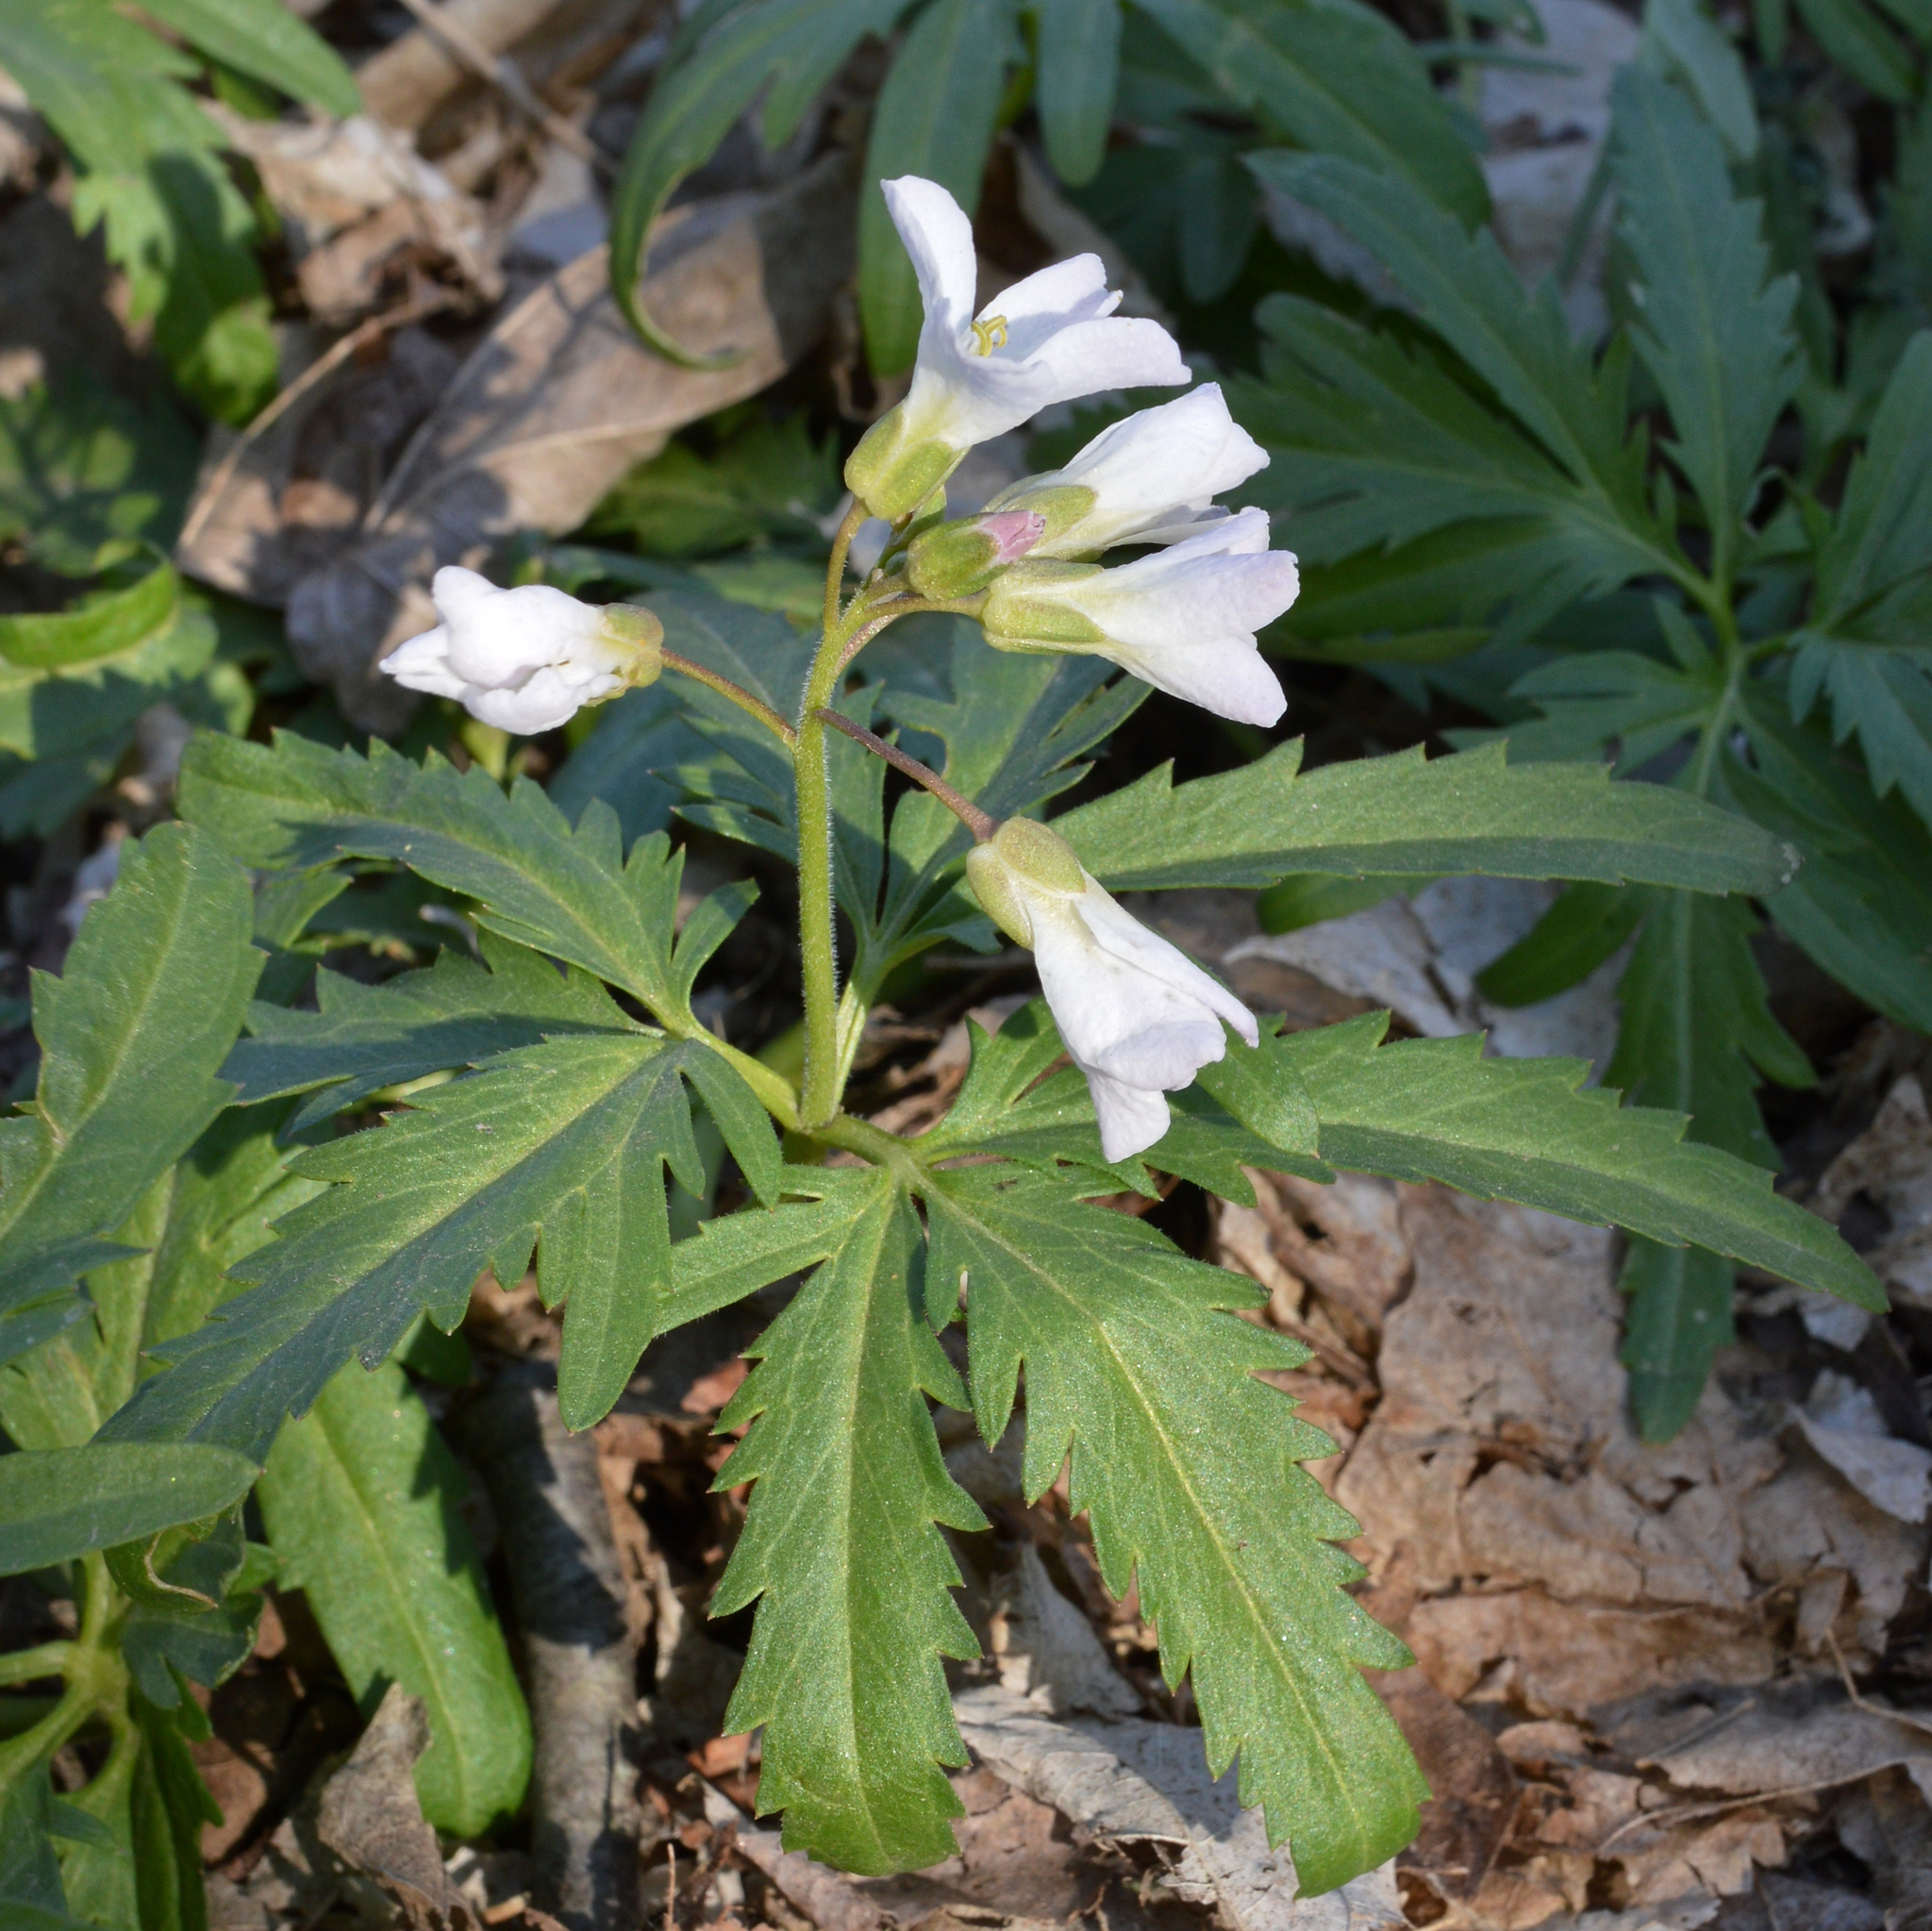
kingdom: Plantae
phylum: Tracheophyta
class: Magnoliopsida
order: Brassicales
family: Brassicaceae
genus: Cardamine
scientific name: Cardamine concatenata
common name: Cut-leaf toothcup
